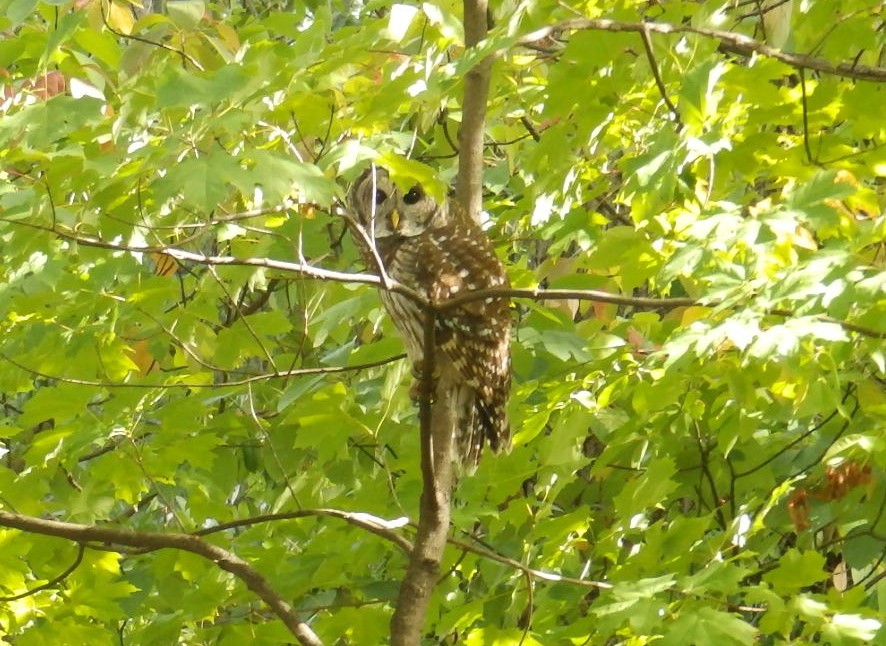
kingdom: Animalia
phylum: Chordata
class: Aves
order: Strigiformes
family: Strigidae
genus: Strix
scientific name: Strix varia
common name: Barred owl
